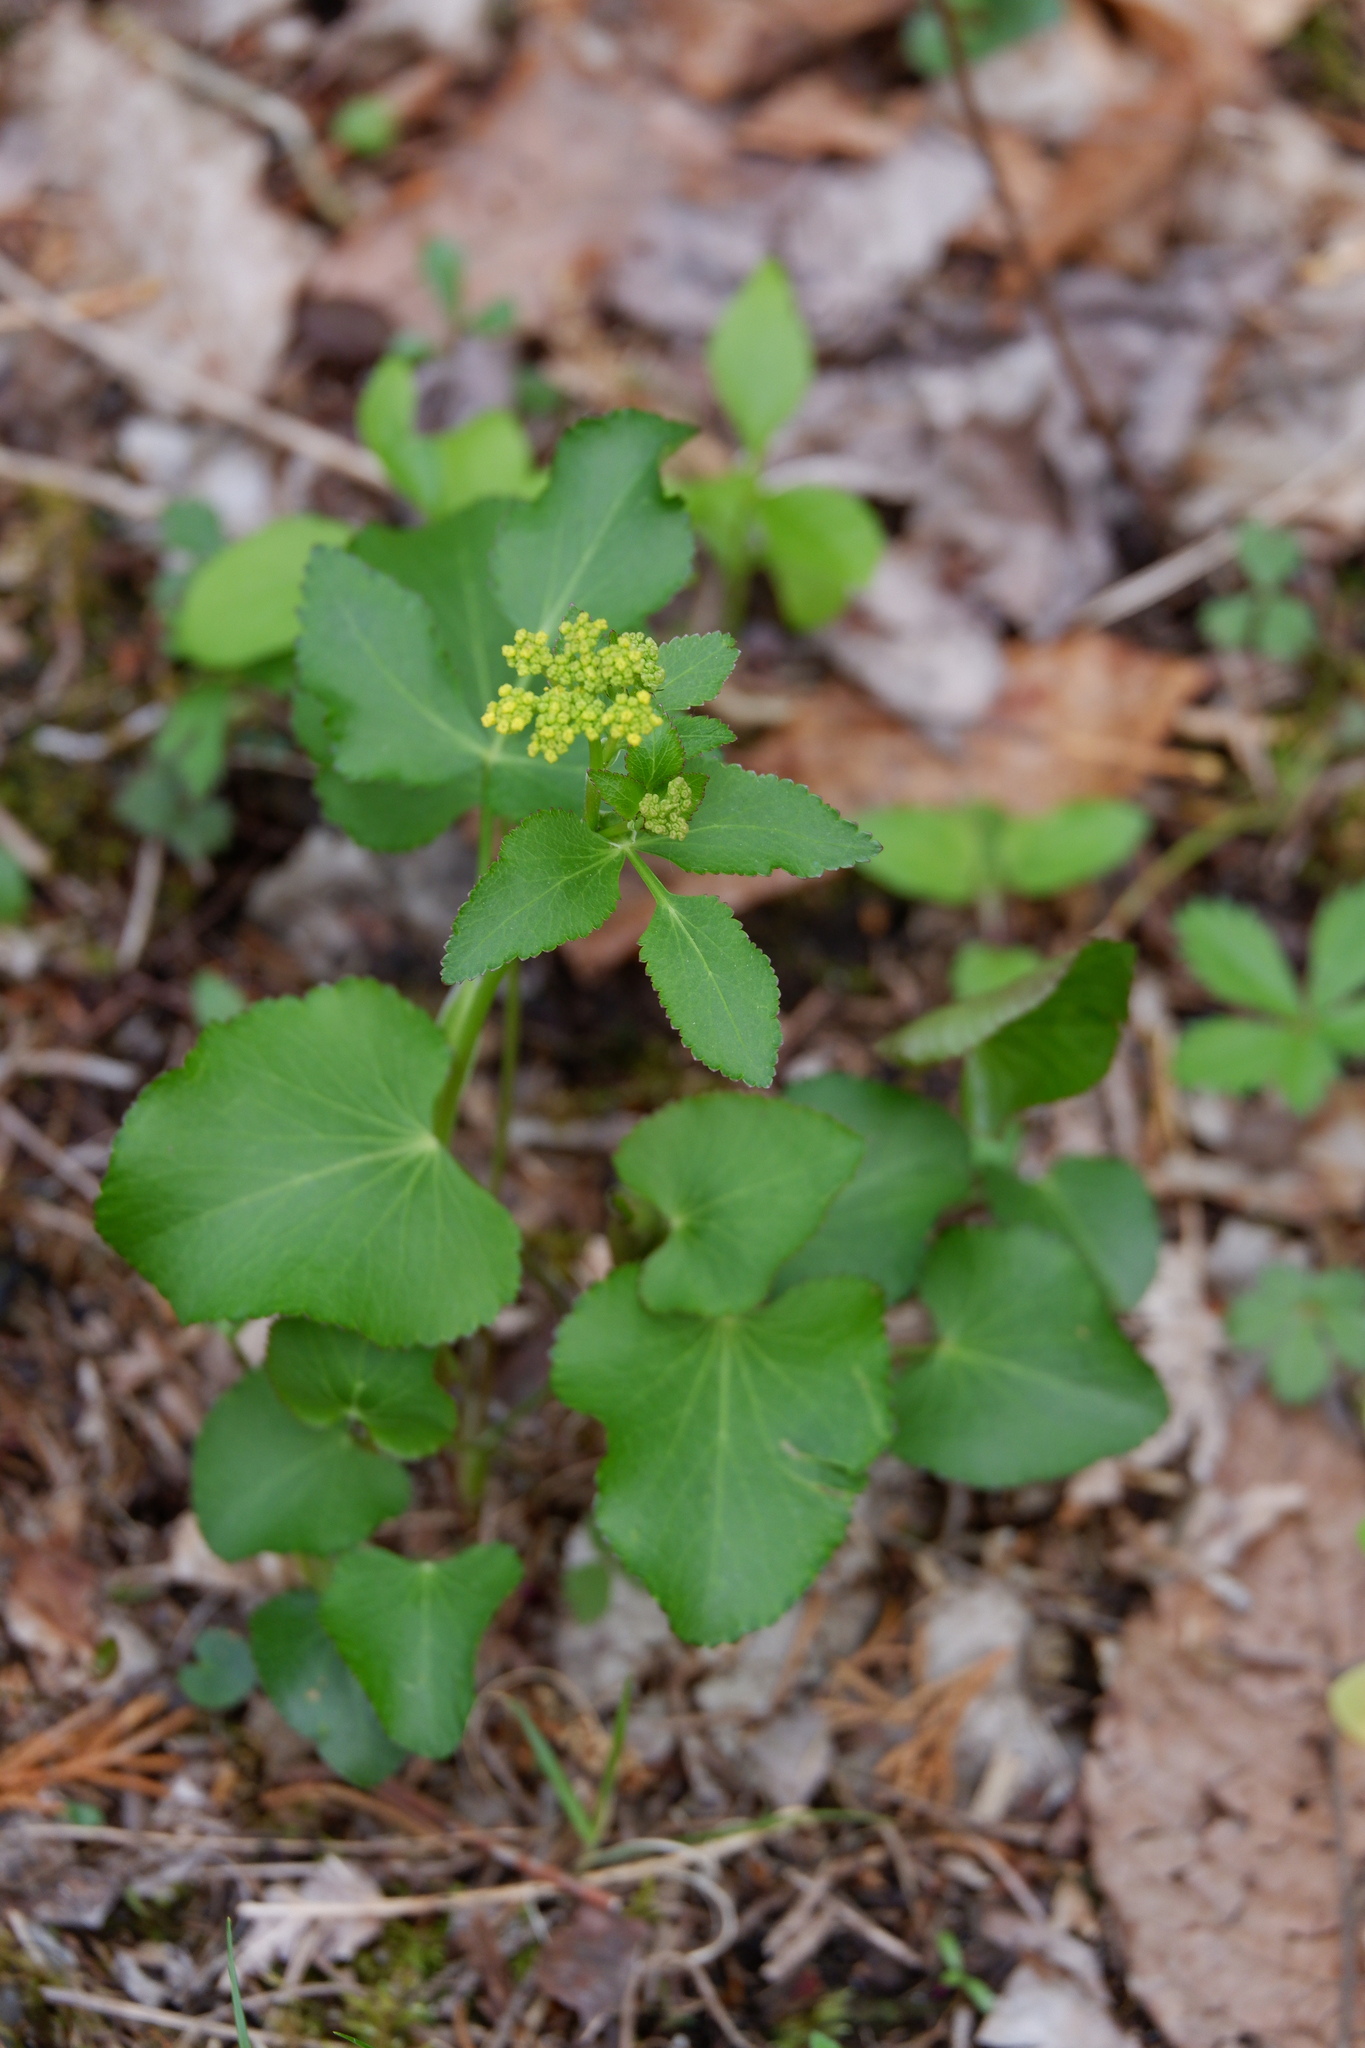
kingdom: Plantae
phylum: Tracheophyta
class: Magnoliopsida
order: Apiales
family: Apiaceae
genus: Zizia
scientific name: Zizia aptera
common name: Heart-leaved alexanders
